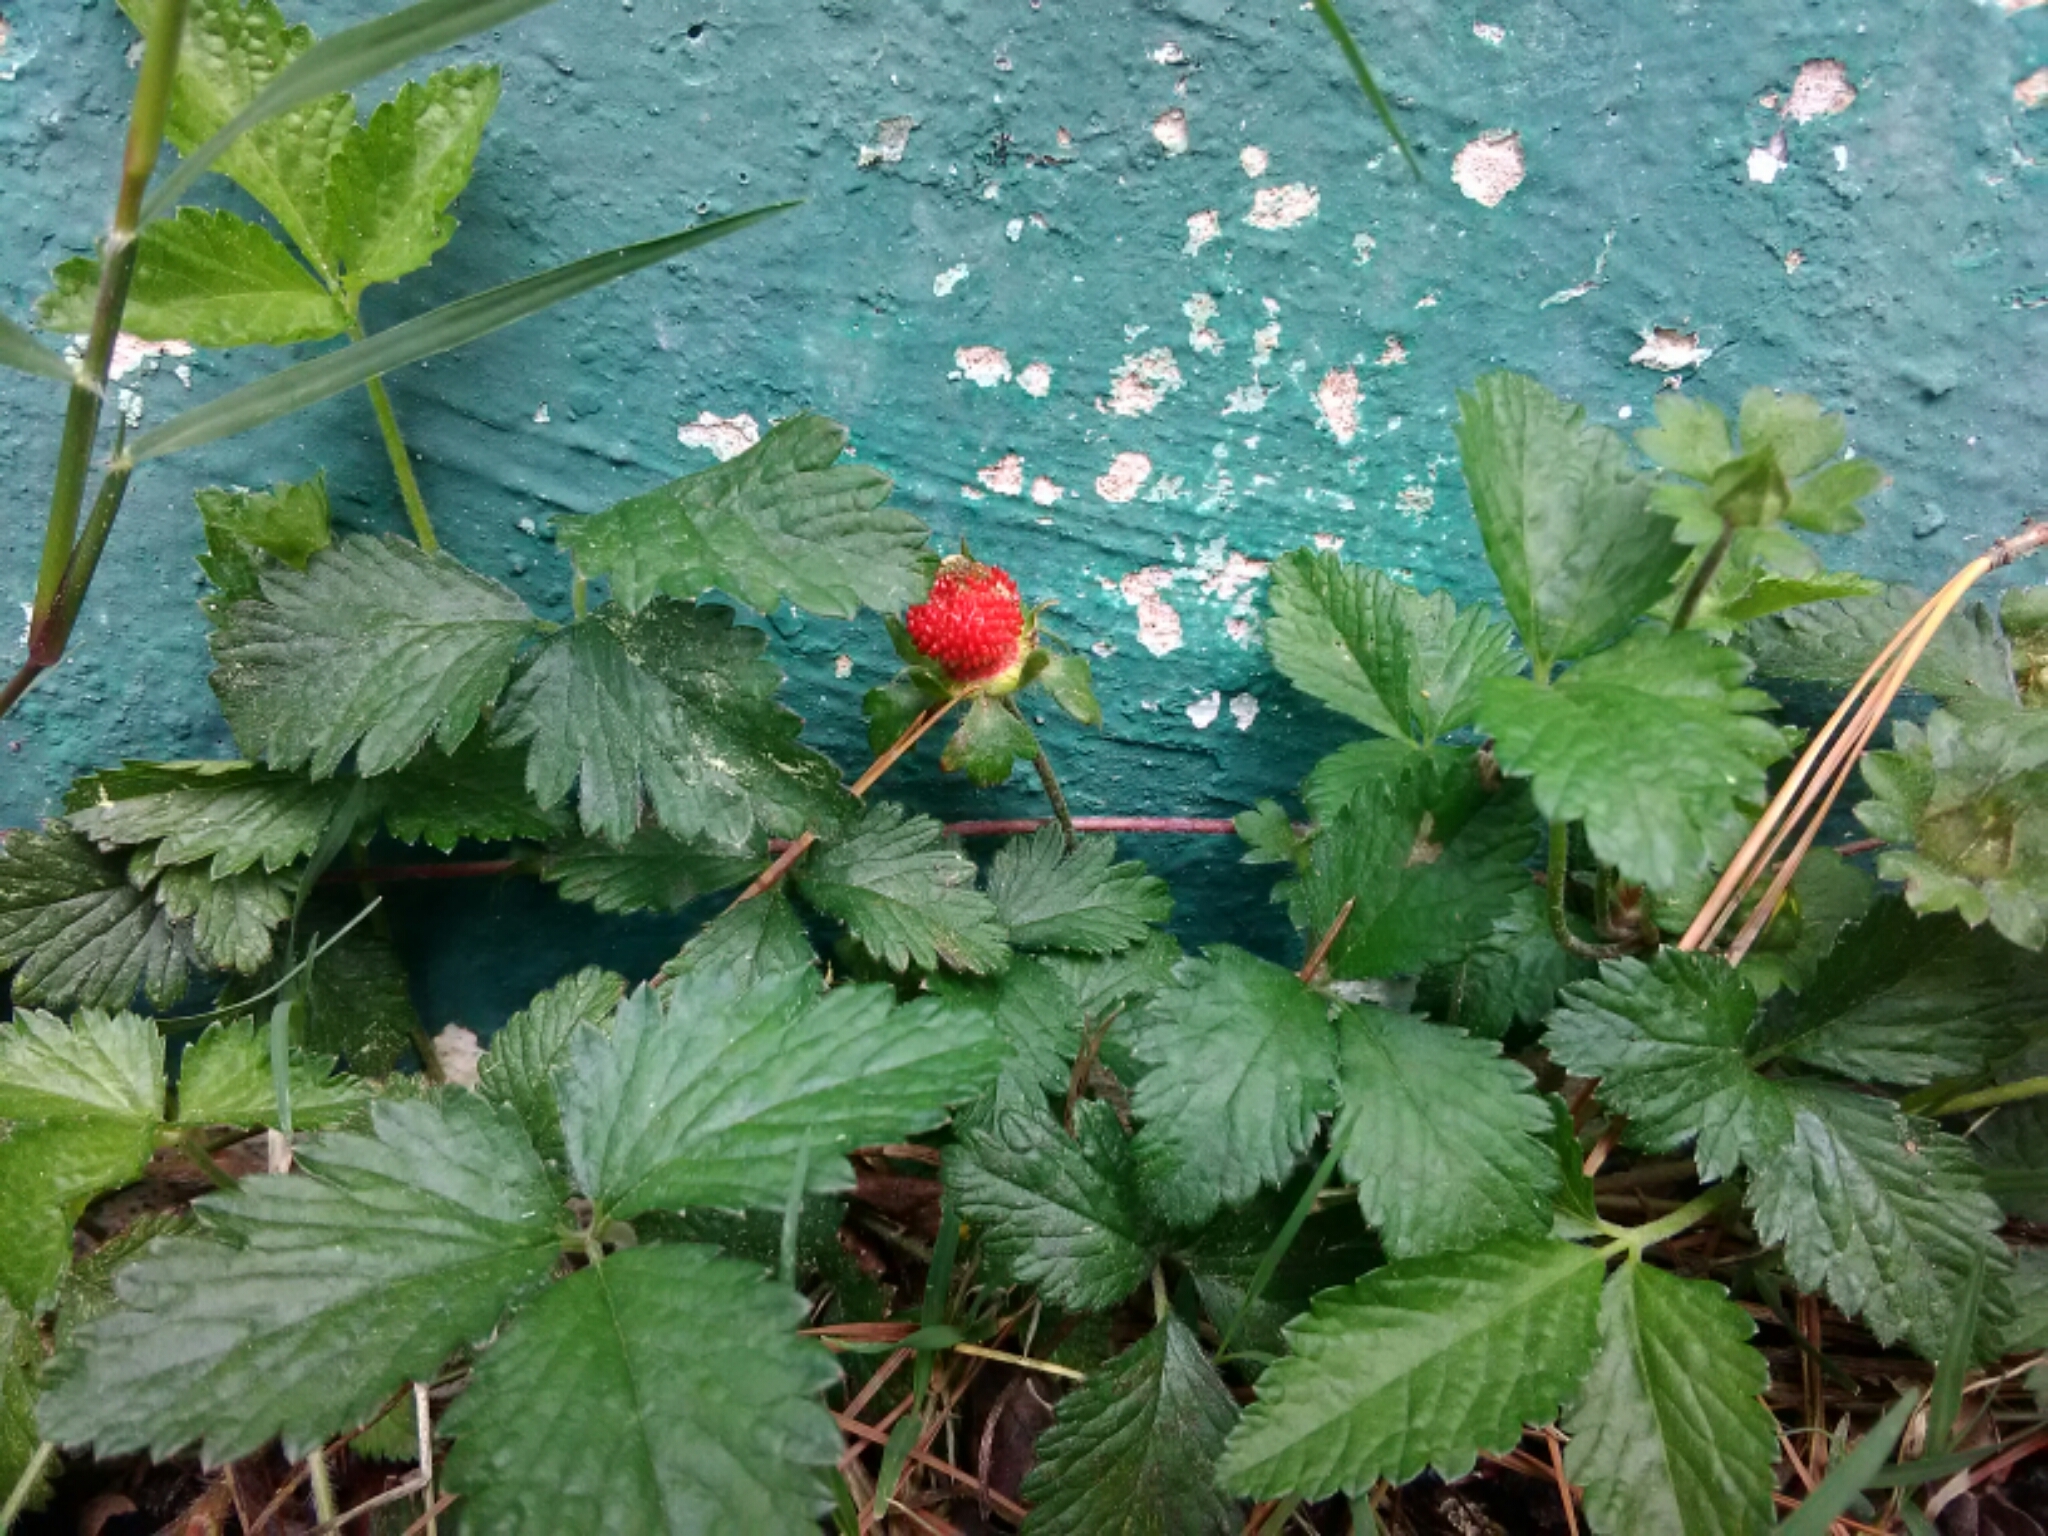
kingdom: Plantae
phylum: Tracheophyta
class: Magnoliopsida
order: Rosales
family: Rosaceae
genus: Potentilla
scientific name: Potentilla indica
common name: Yellow-flowered strawberry
